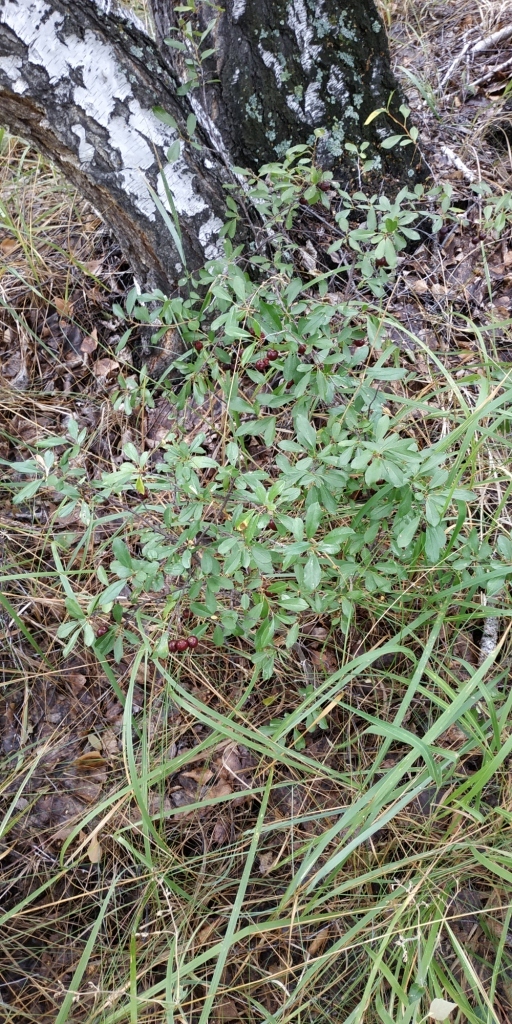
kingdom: Plantae
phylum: Tracheophyta
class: Magnoliopsida
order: Rosales
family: Rosaceae
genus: Prunus
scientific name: Prunus fruticosa
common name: European dwarf cherry
